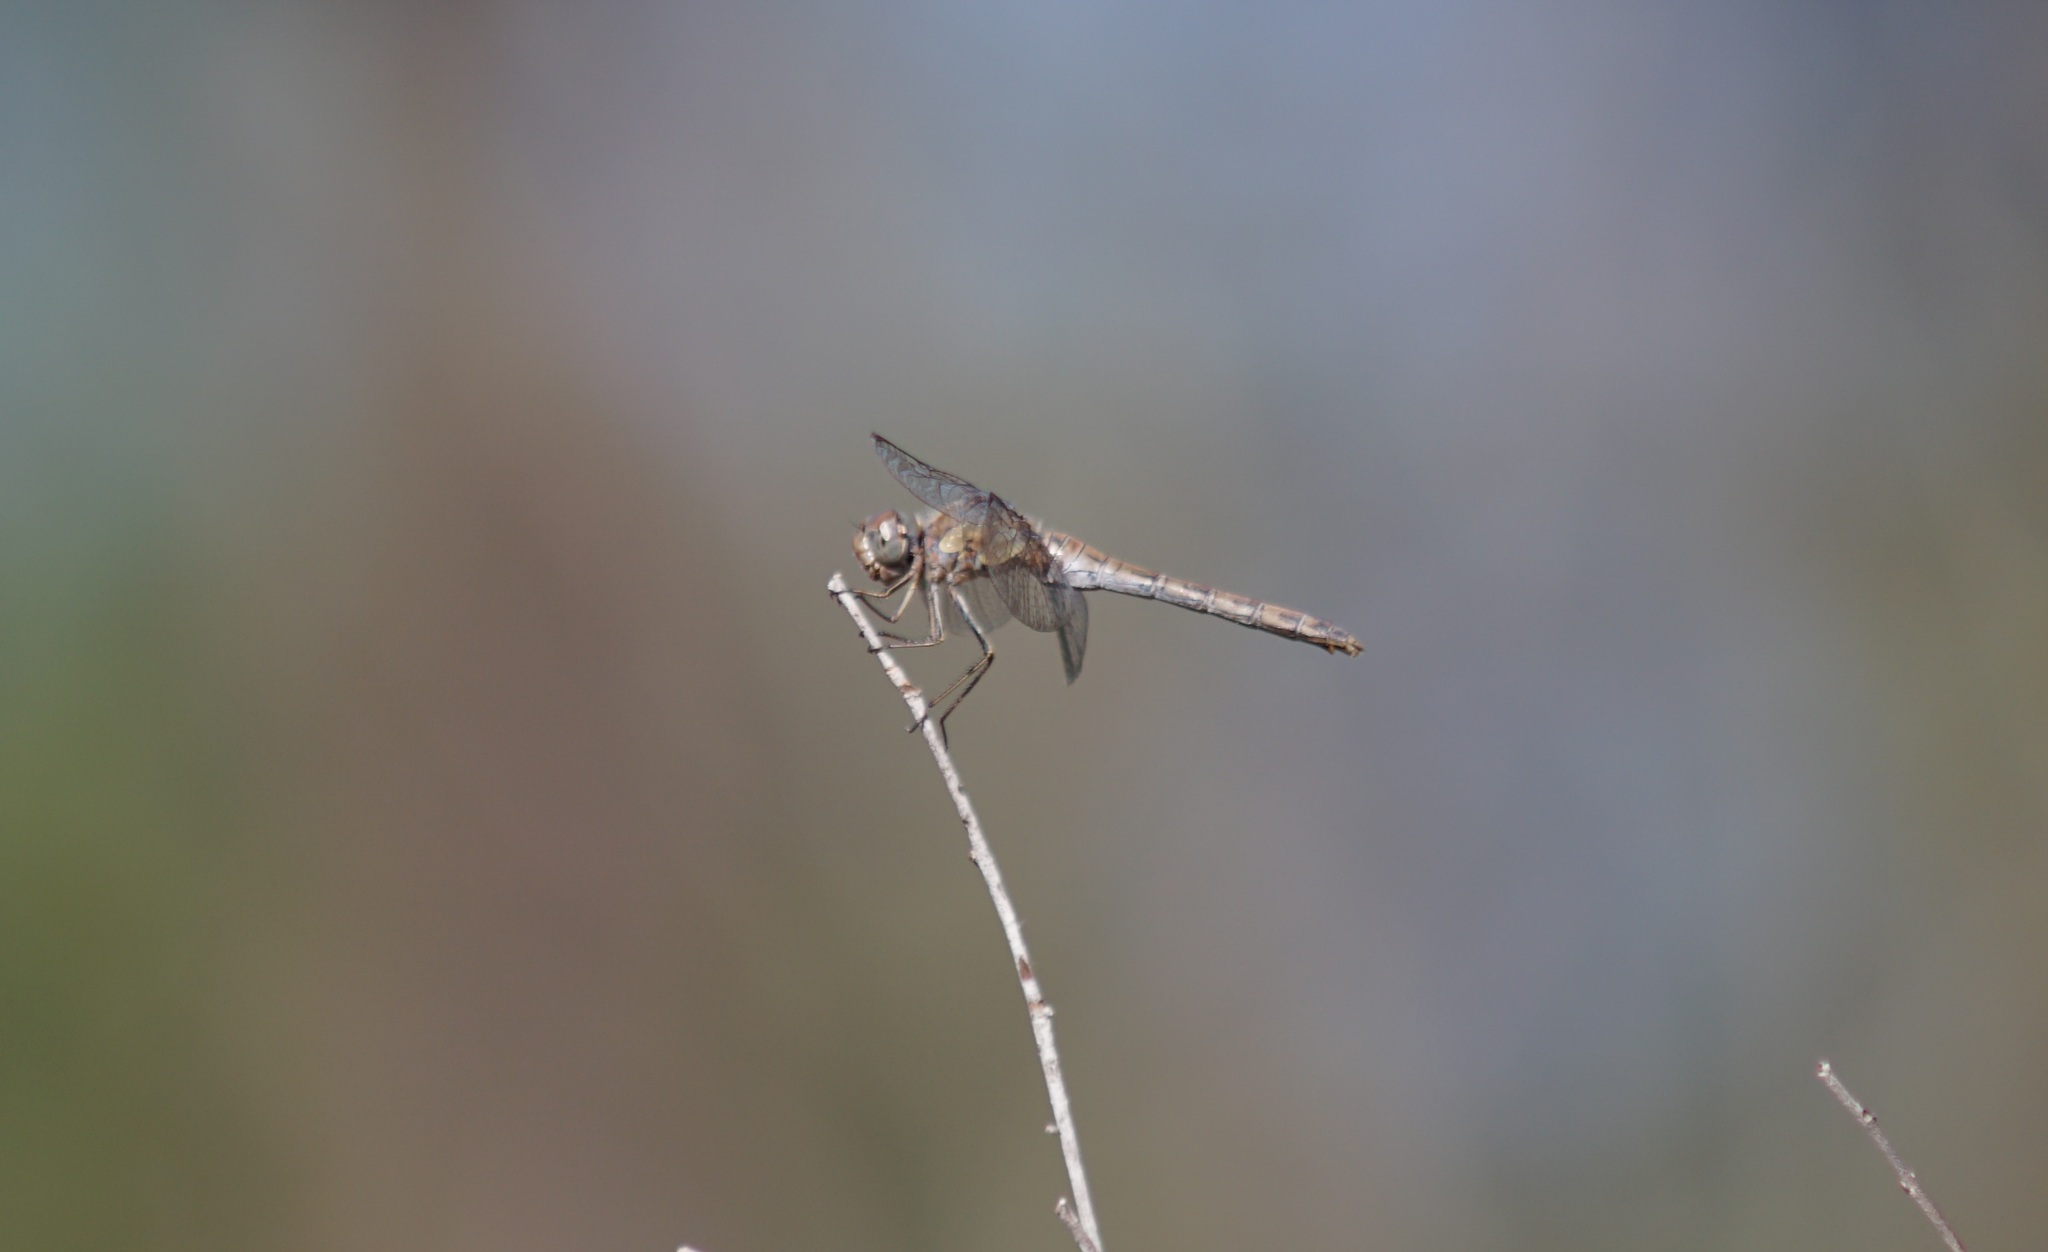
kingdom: Animalia
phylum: Arthropoda
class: Insecta
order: Odonata
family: Libellulidae
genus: Sympetrum
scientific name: Sympetrum striolatum
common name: Common darter
